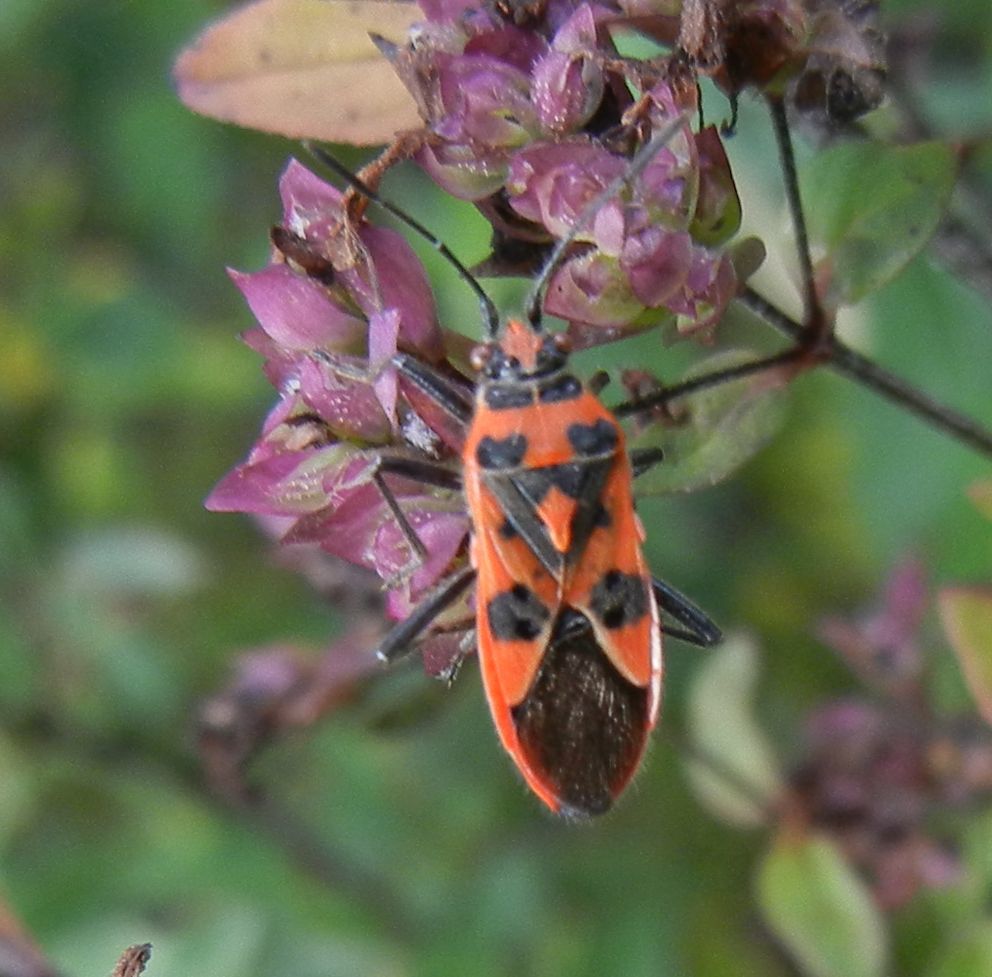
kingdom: Animalia
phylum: Arthropoda
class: Insecta
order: Hemiptera
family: Rhopalidae
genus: Corizus
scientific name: Corizus hyoscyami
